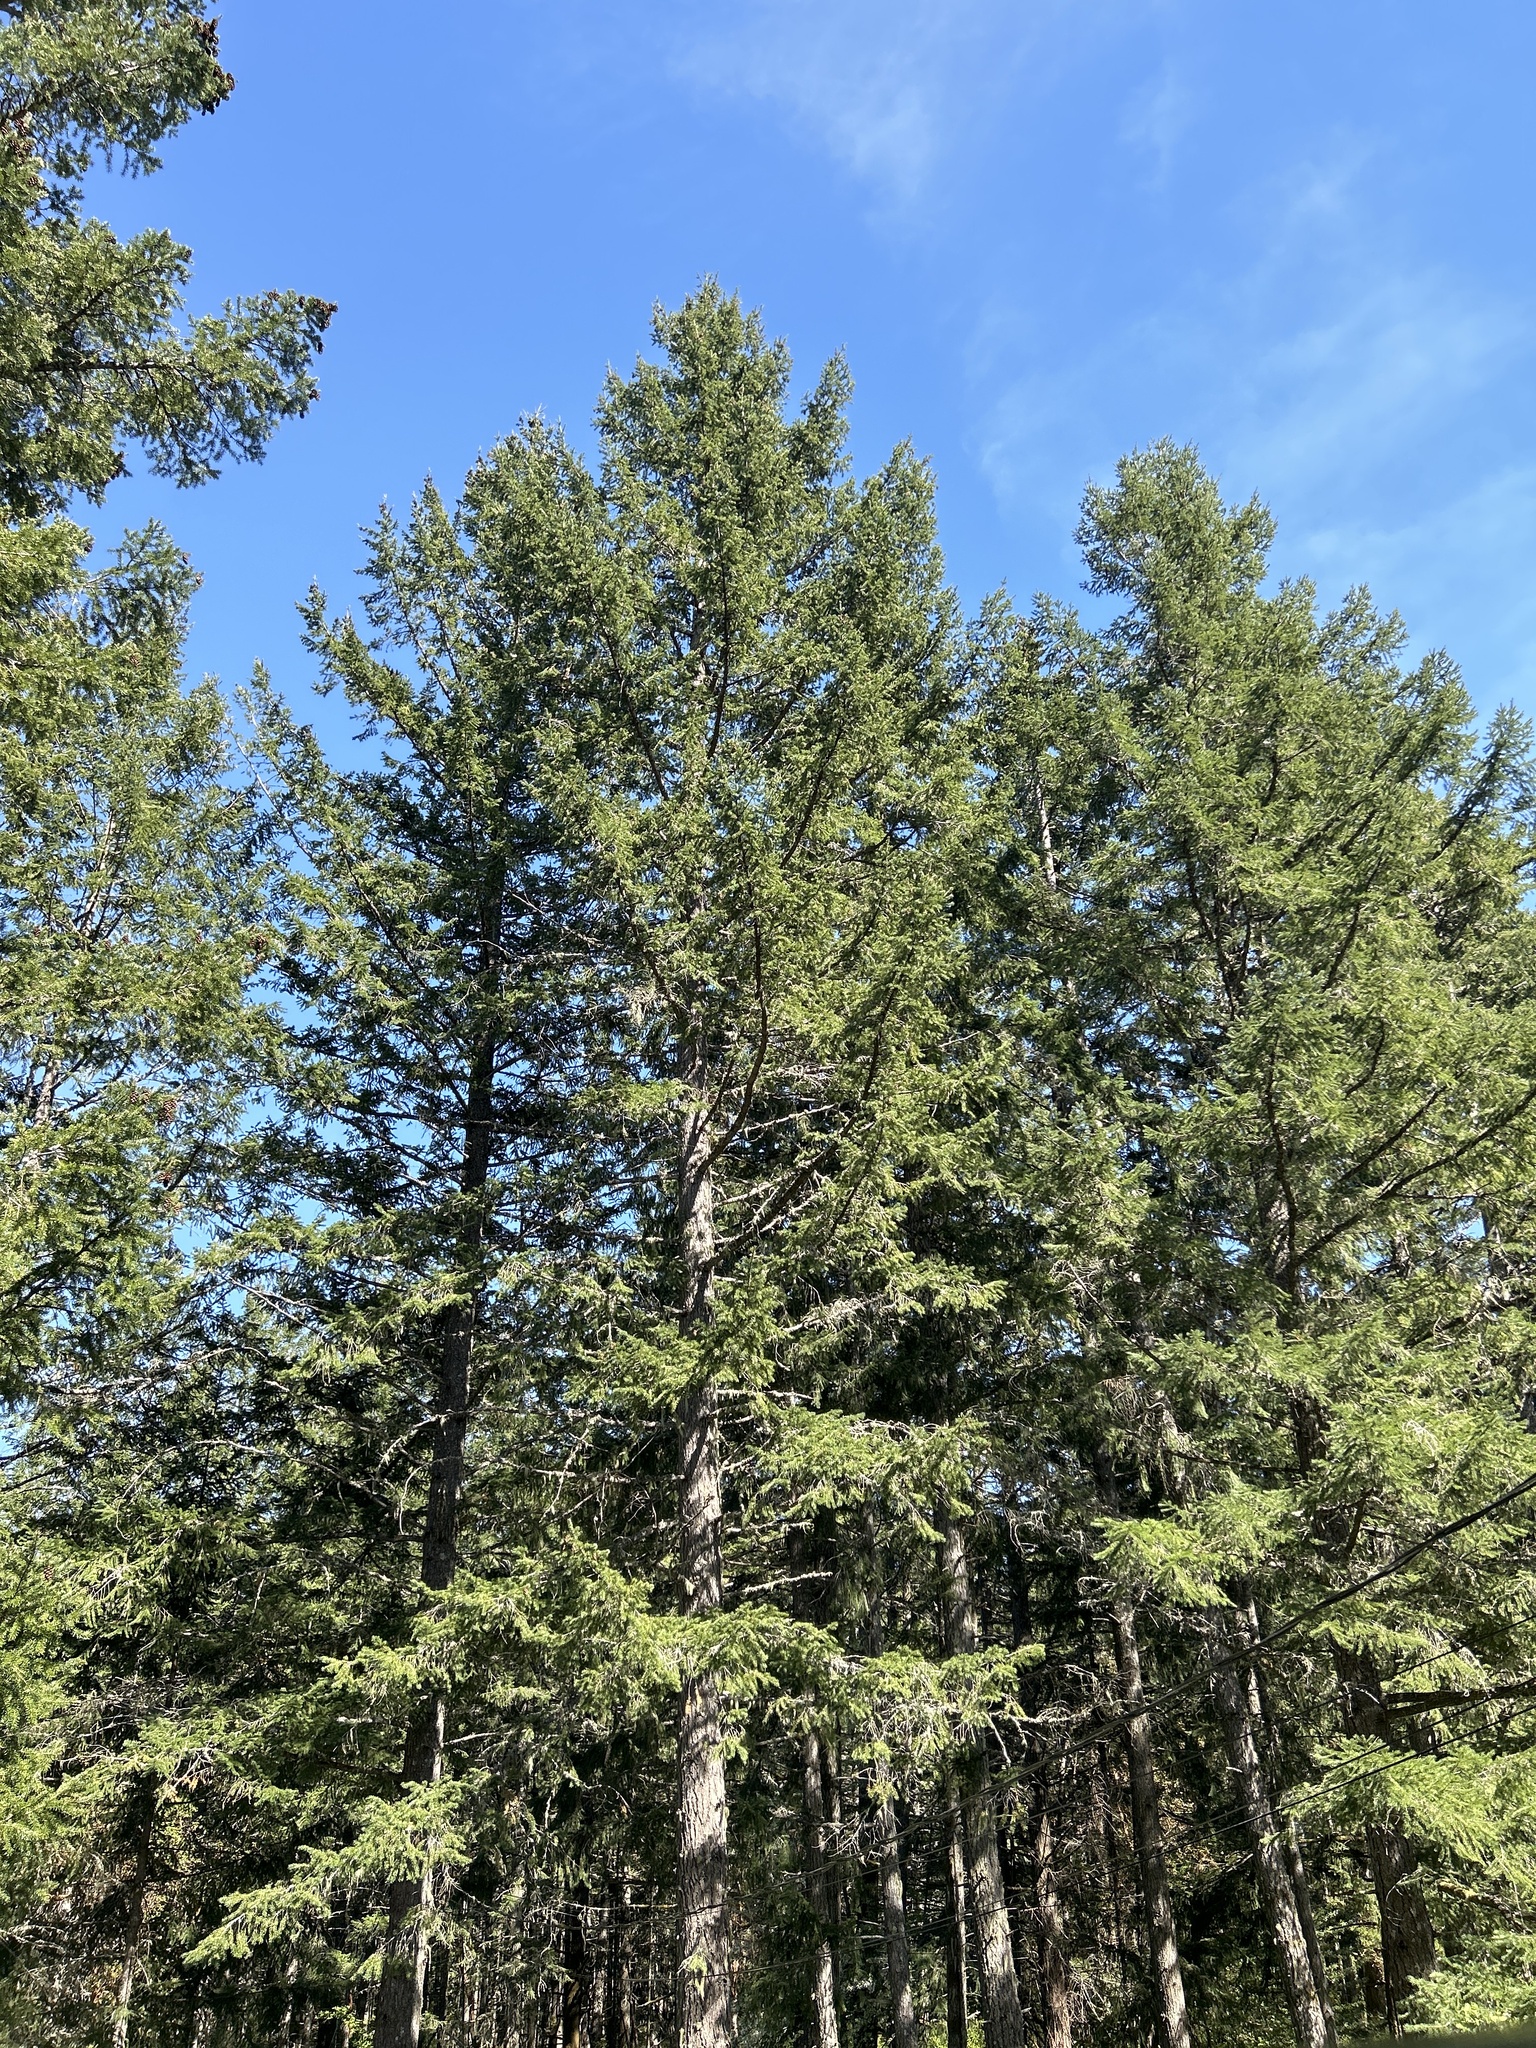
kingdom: Plantae
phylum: Tracheophyta
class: Pinopsida
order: Pinales
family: Pinaceae
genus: Pseudotsuga
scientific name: Pseudotsuga menziesii
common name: Douglas fir
